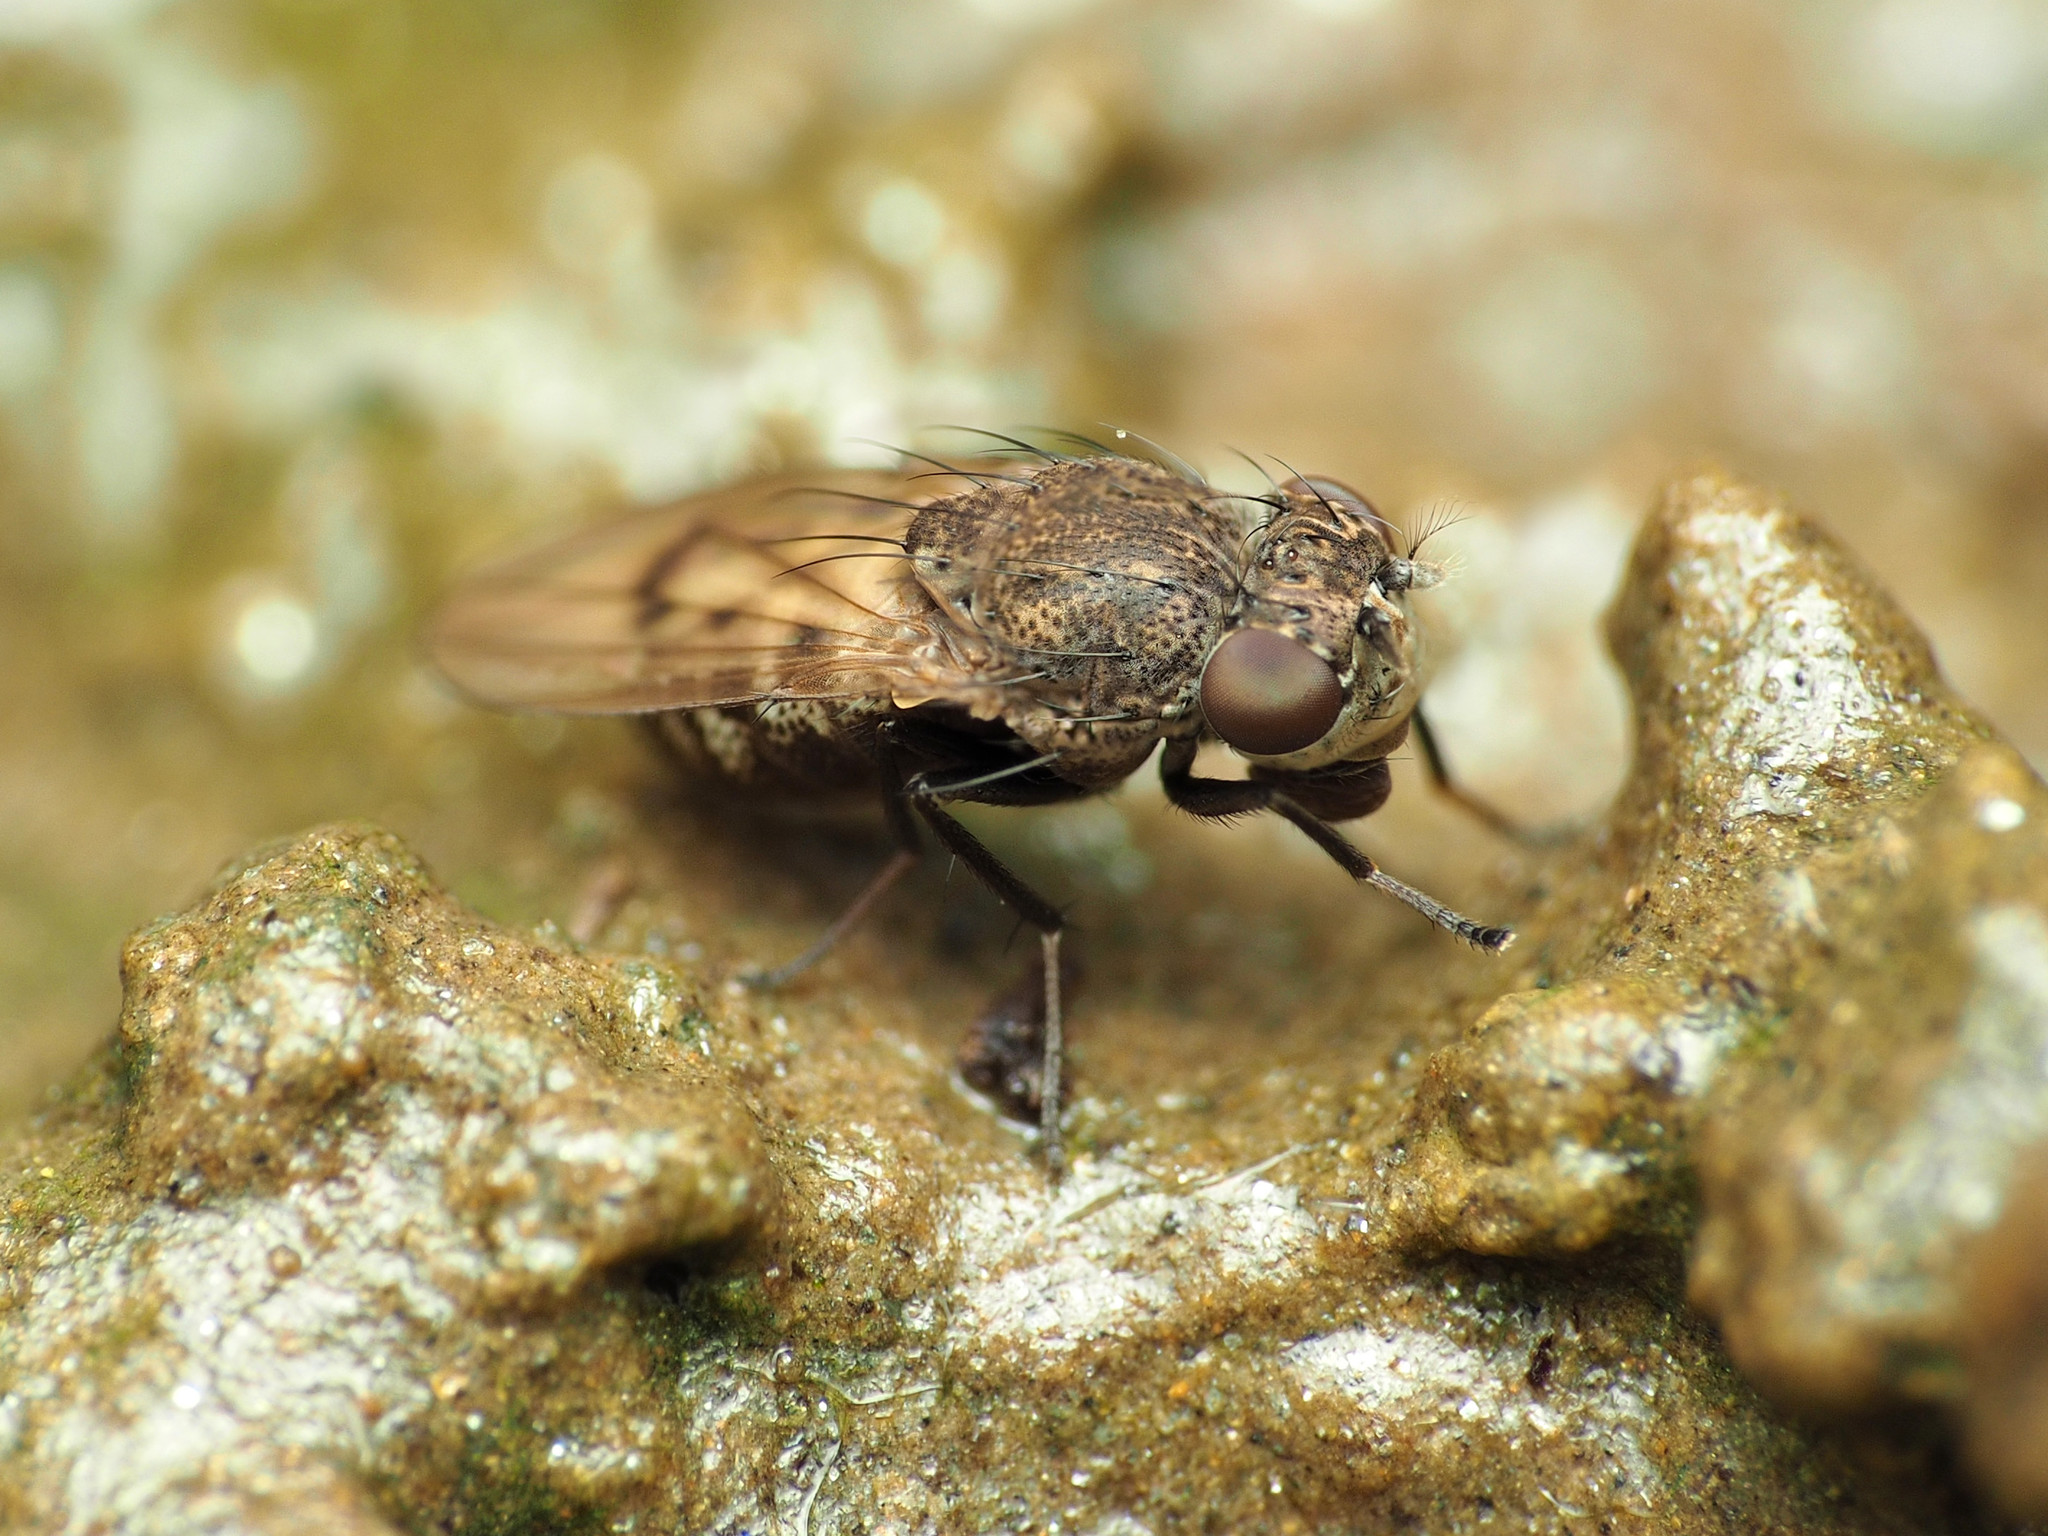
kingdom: Animalia
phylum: Arthropoda
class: Insecta
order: Diptera
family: Ephydridae
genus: Paralimna
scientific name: Paralimna punctipennis
